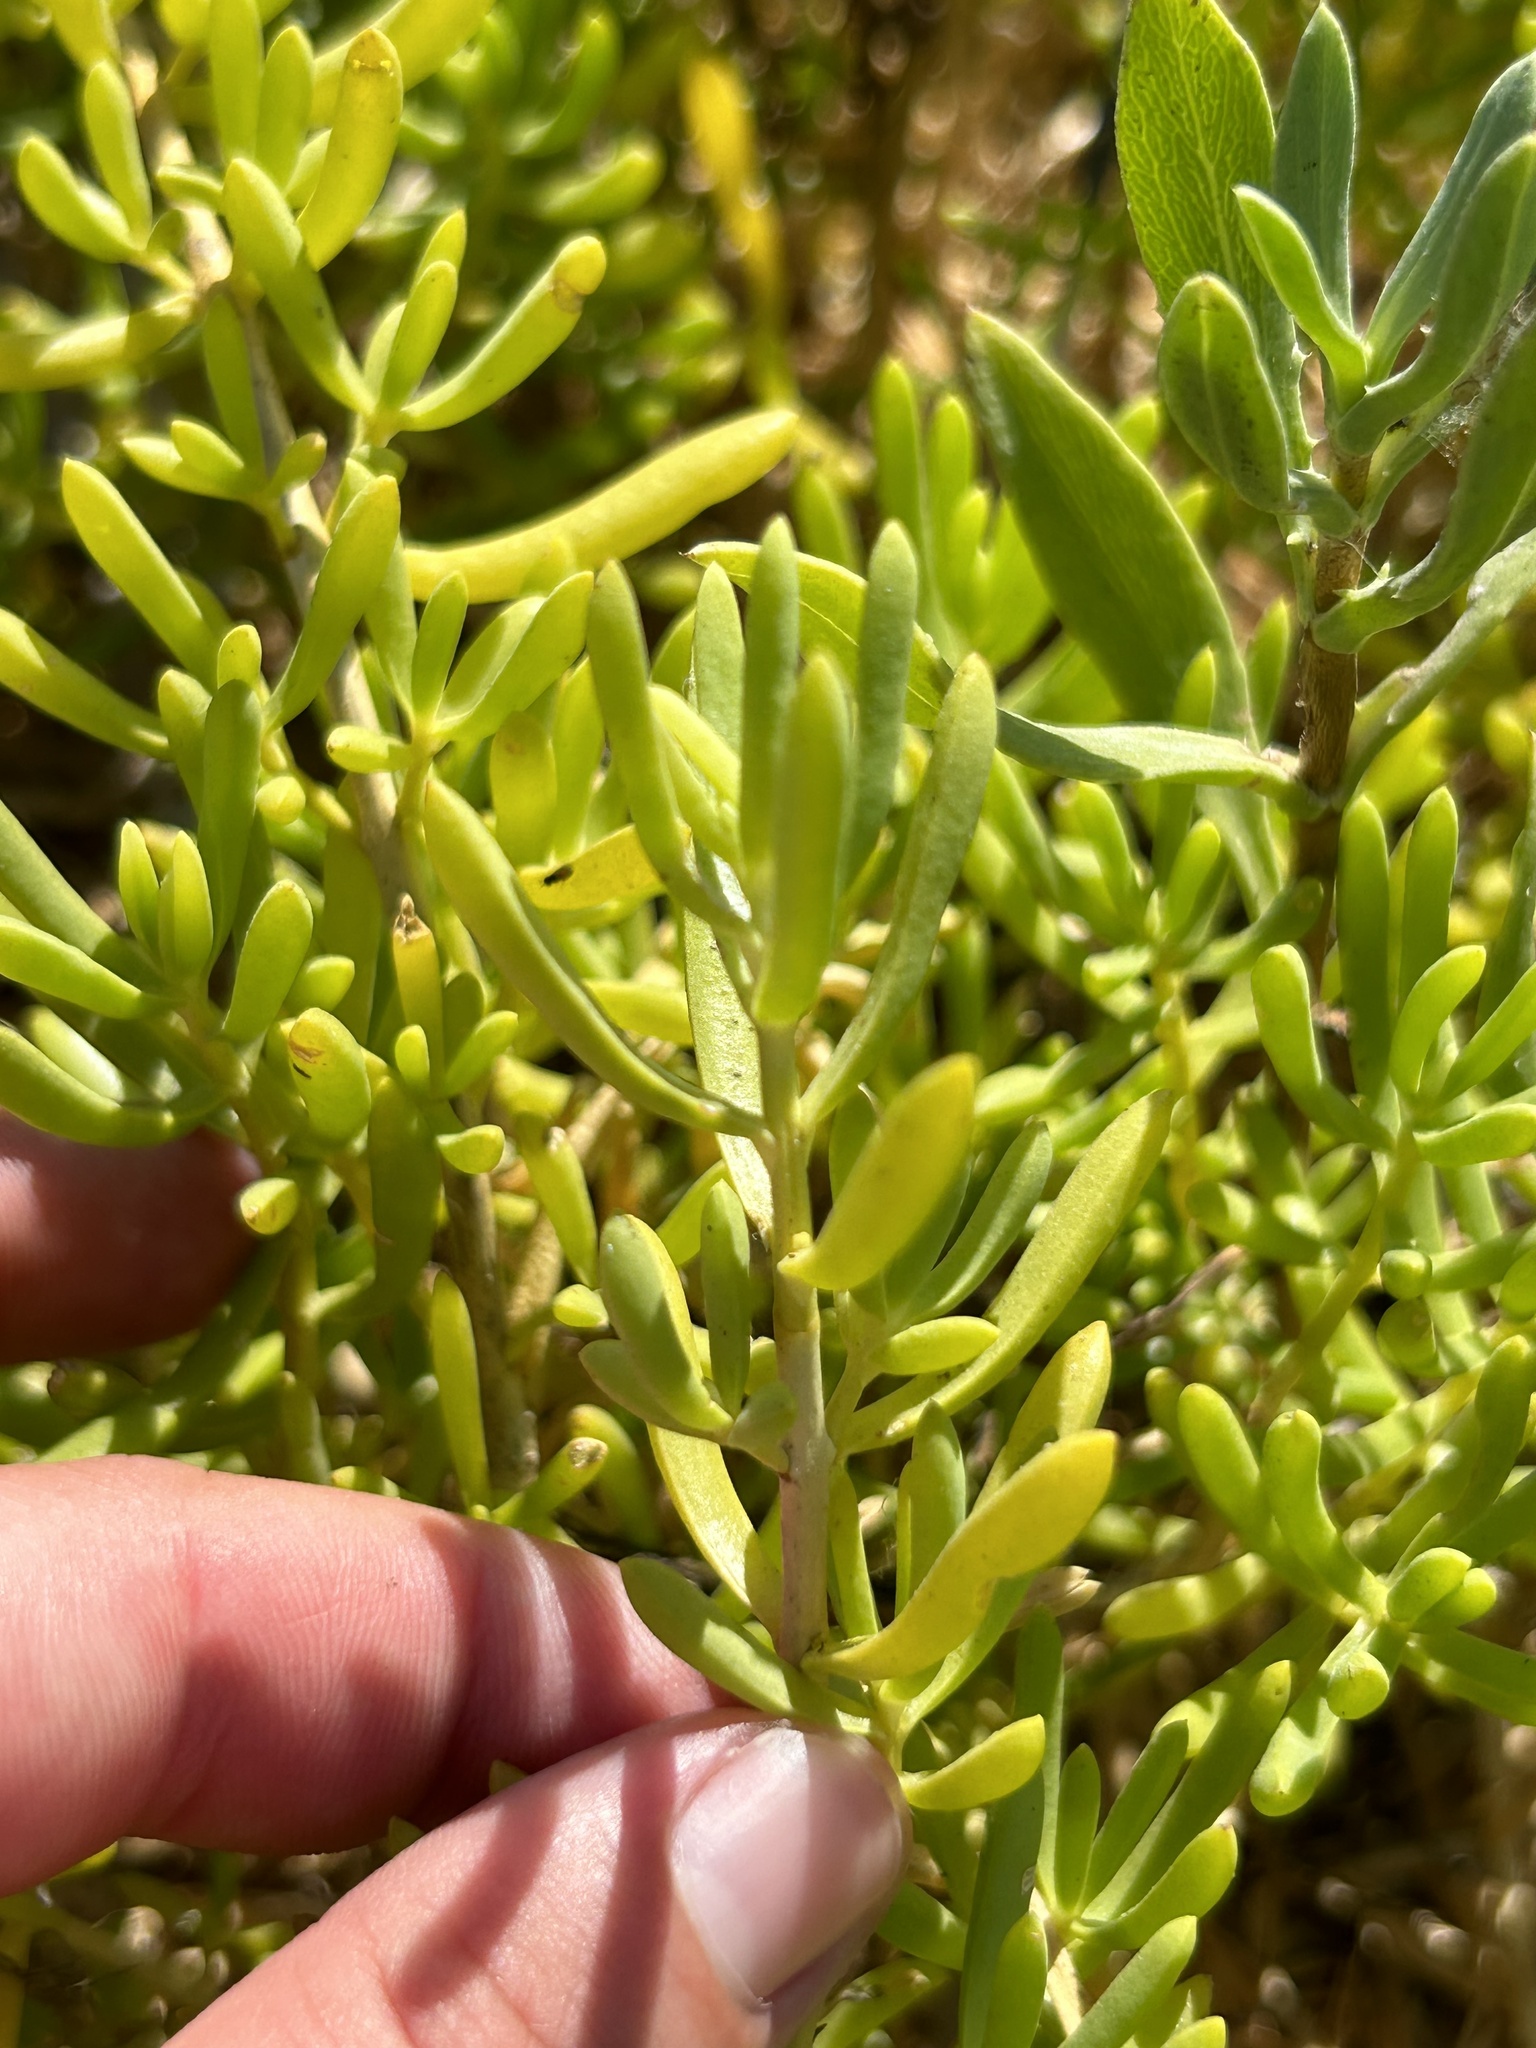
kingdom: Plantae
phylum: Tracheophyta
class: Magnoliopsida
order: Brassicales
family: Bataceae
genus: Batis
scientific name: Batis maritima
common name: Turtleweed
